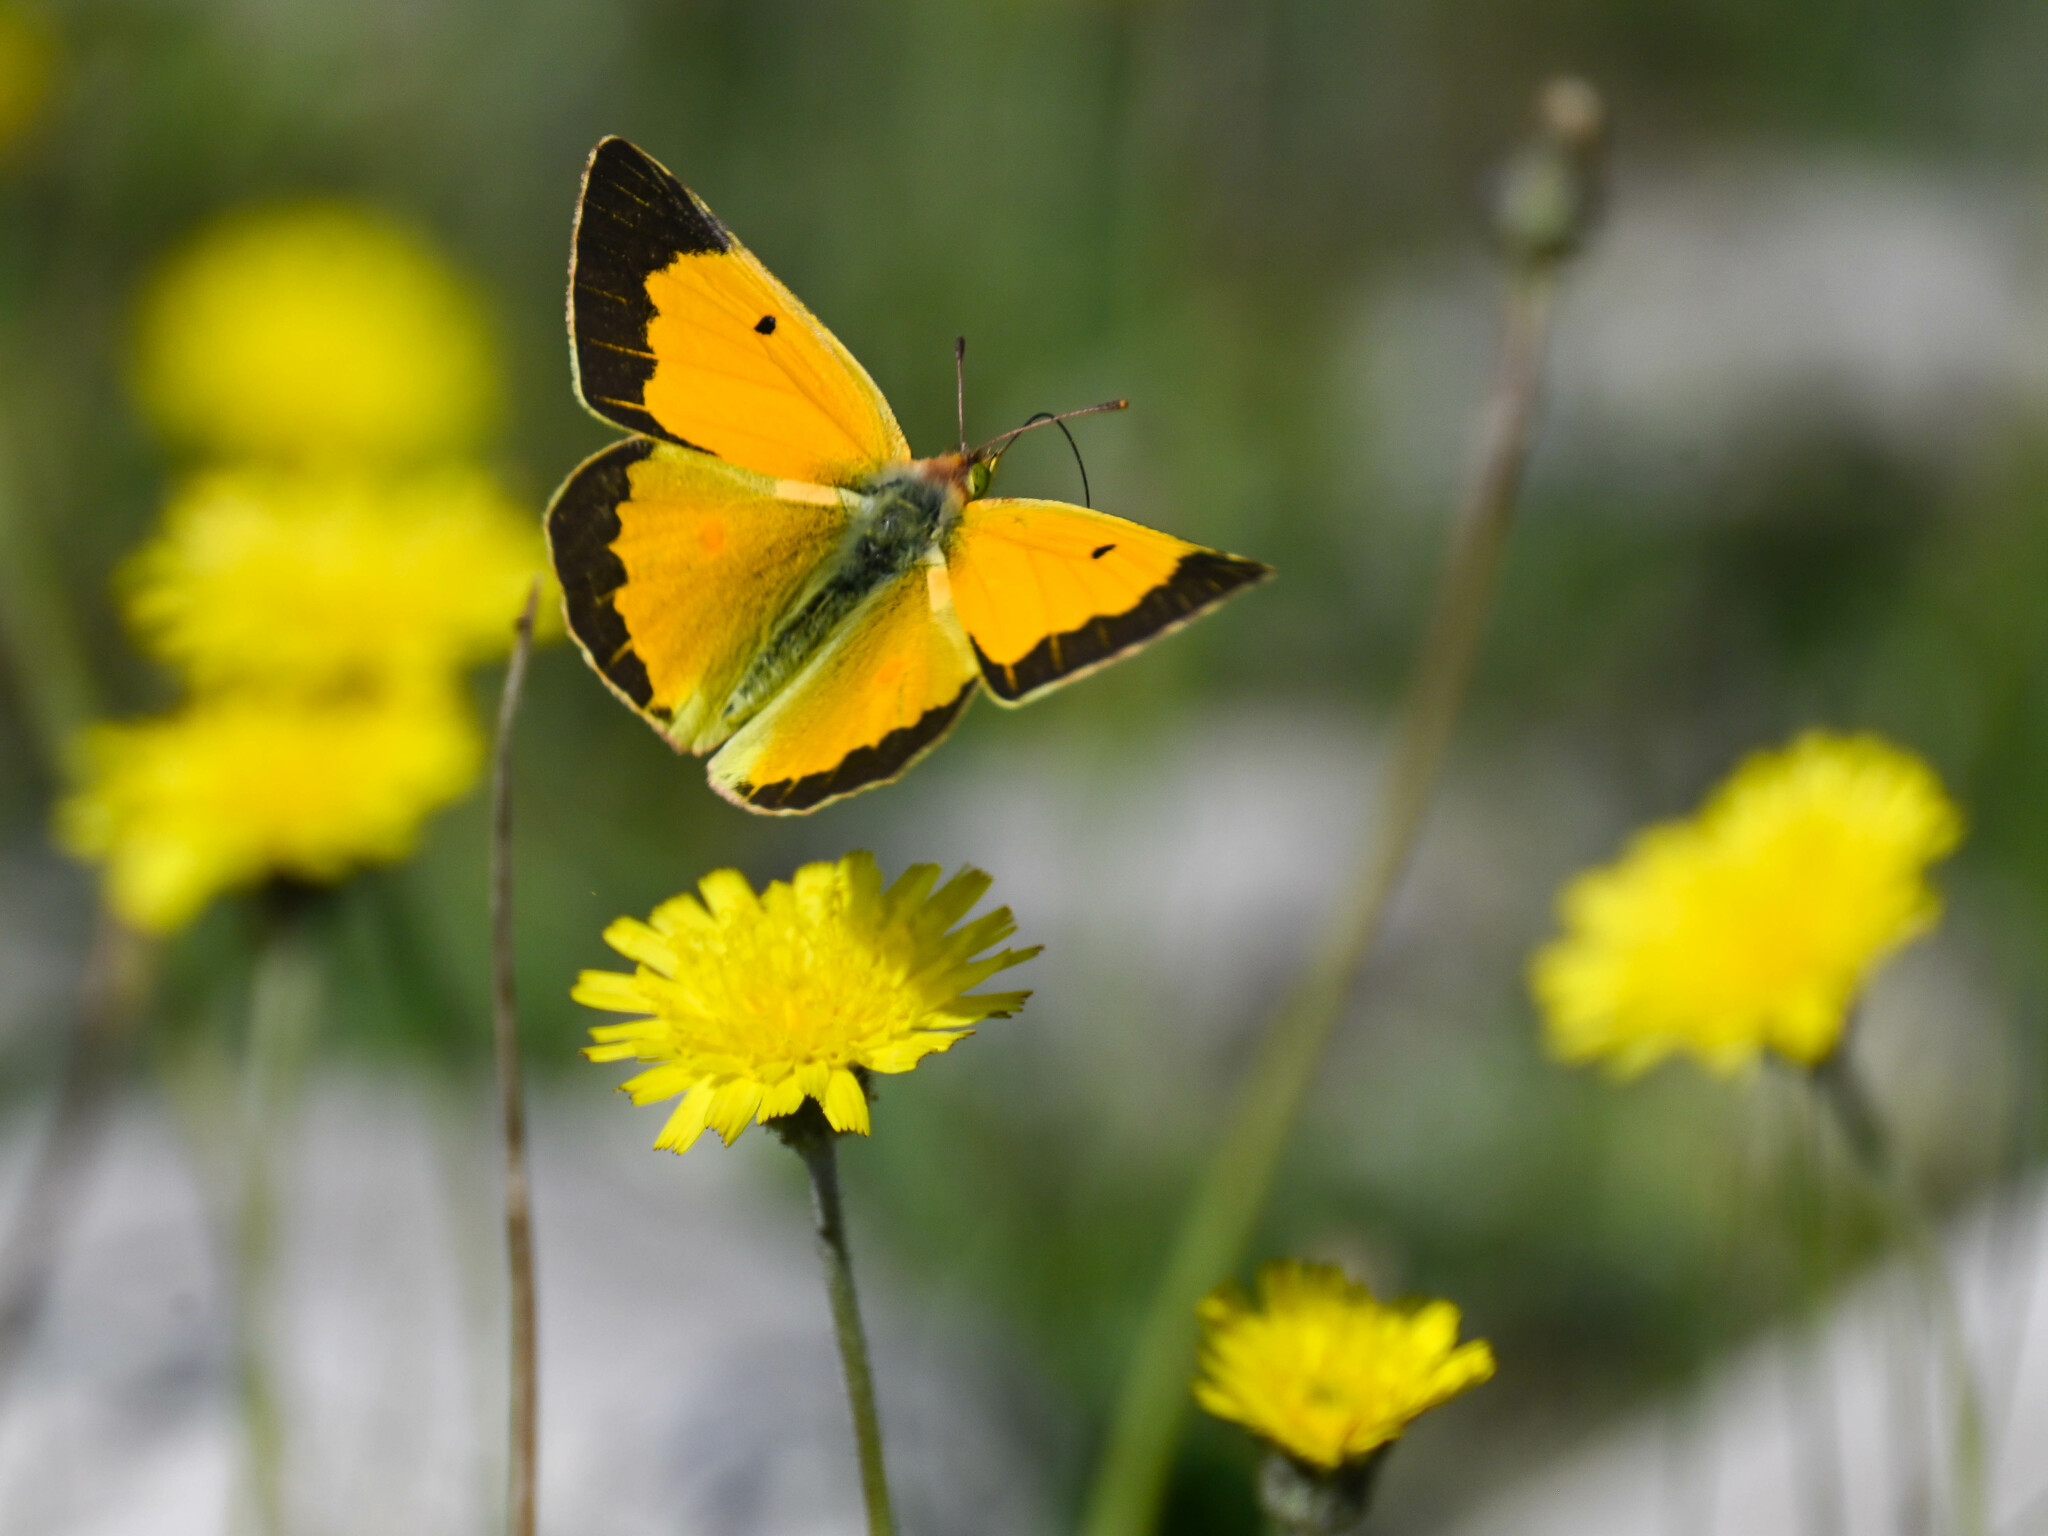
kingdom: Animalia
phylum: Arthropoda
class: Insecta
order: Lepidoptera
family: Pieridae
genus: Colias
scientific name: Colias croceus
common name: Clouded yellow
